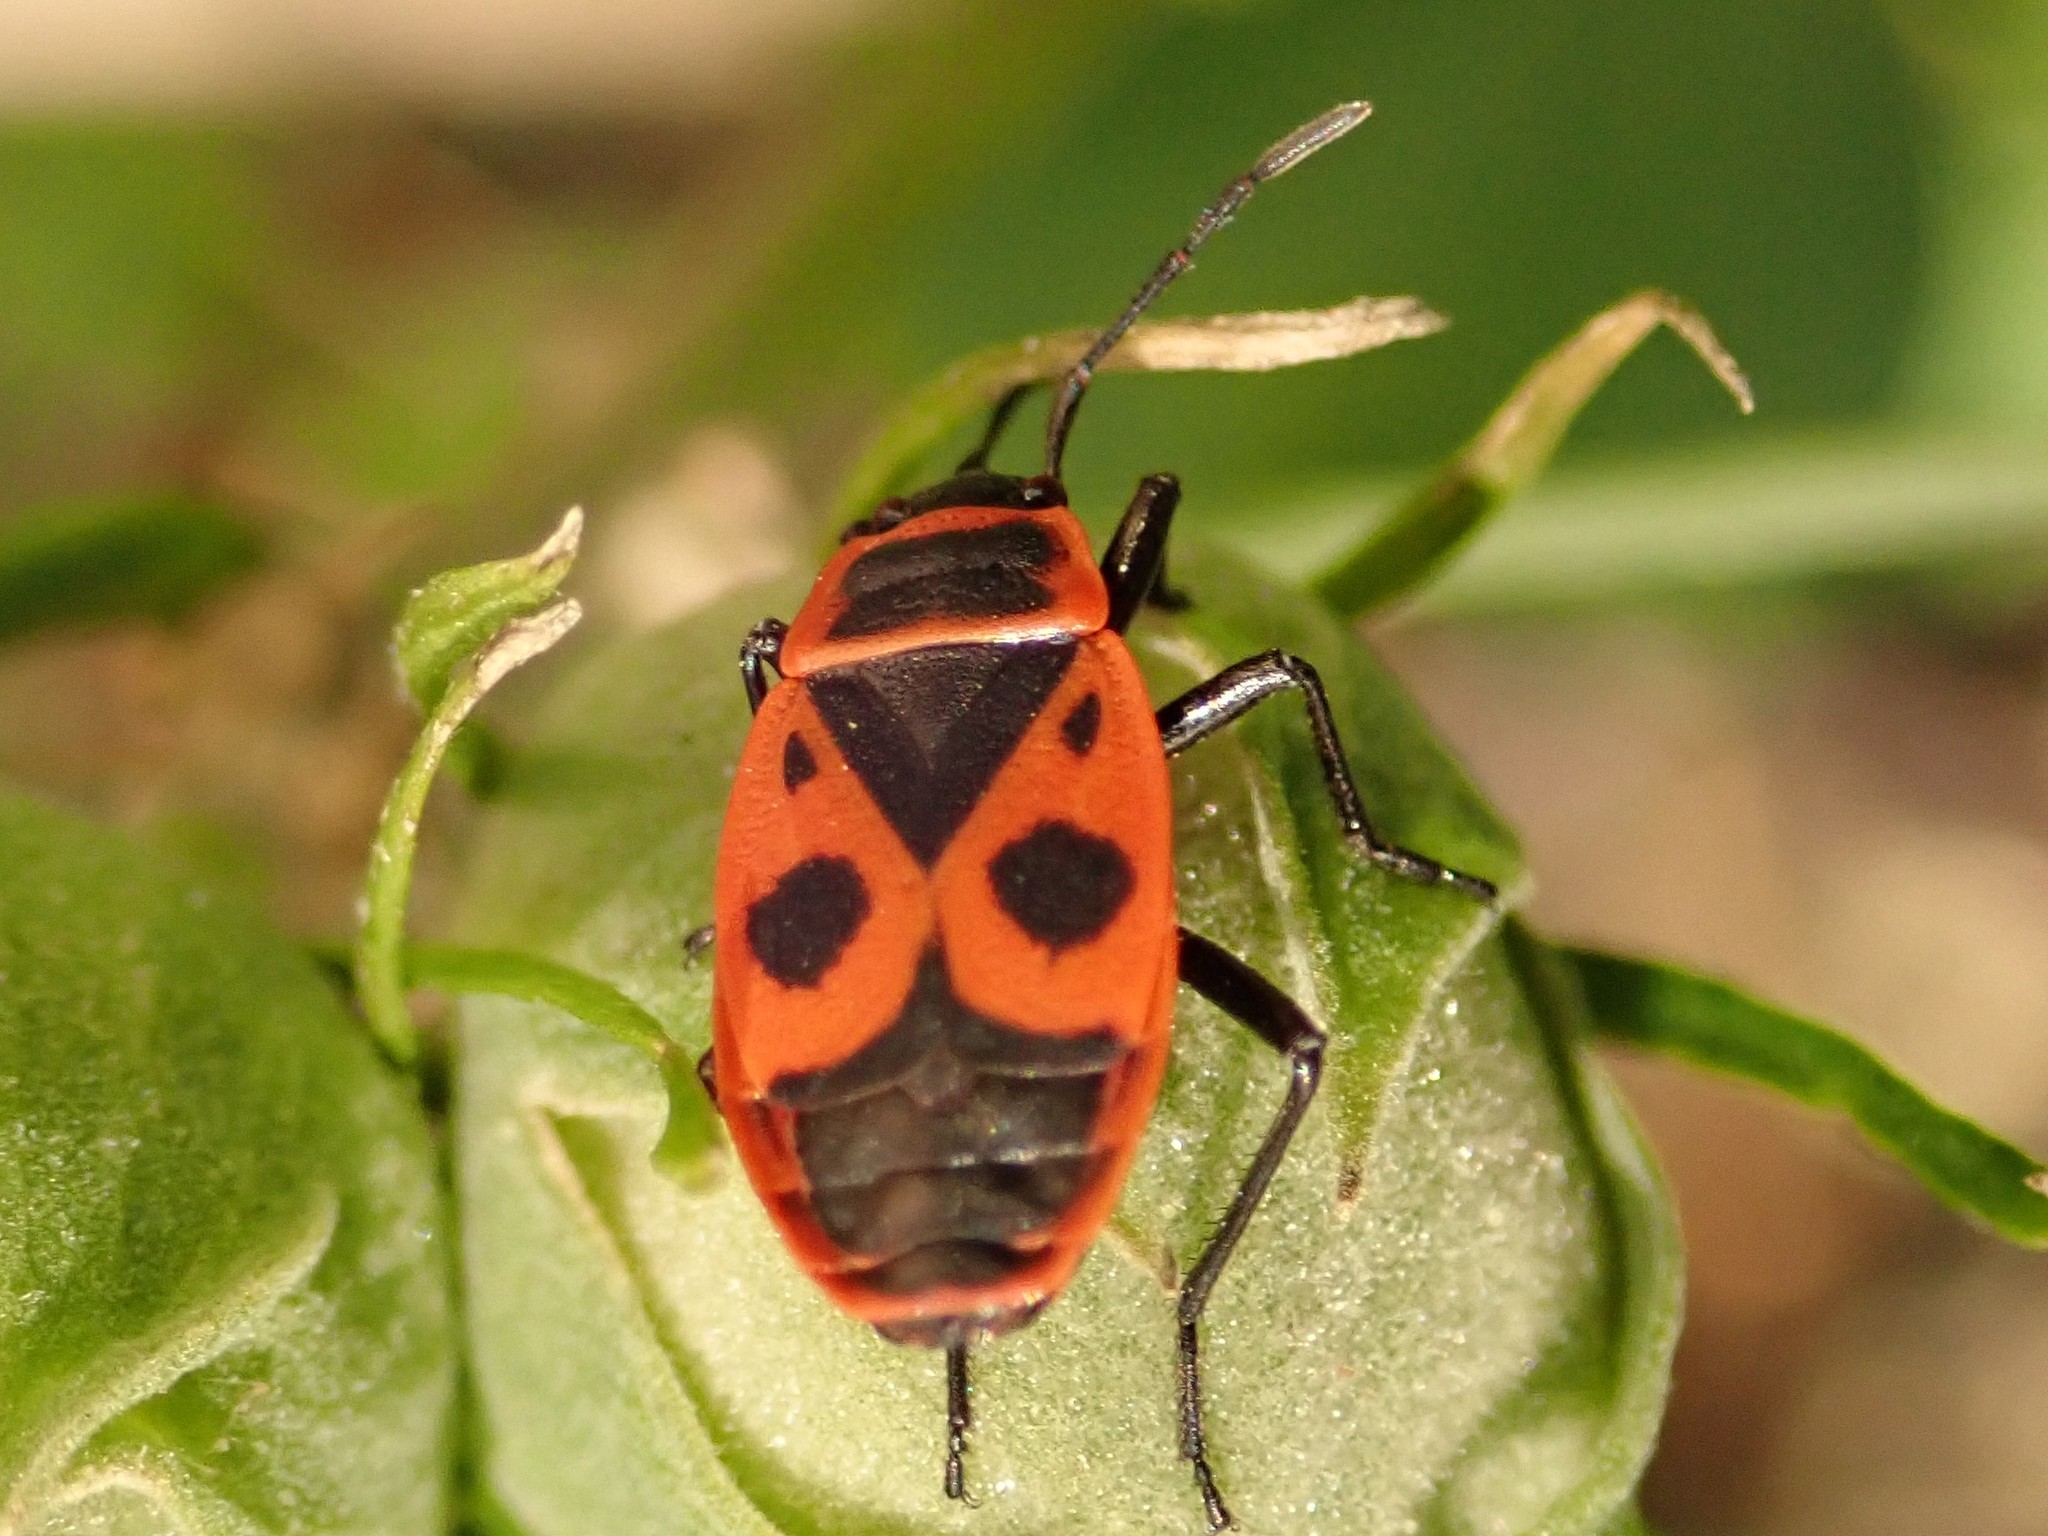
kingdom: Animalia
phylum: Arthropoda
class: Insecta
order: Hemiptera
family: Pyrrhocoridae
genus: Pyrrhocoris
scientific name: Pyrrhocoris apterus
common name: Firebug
